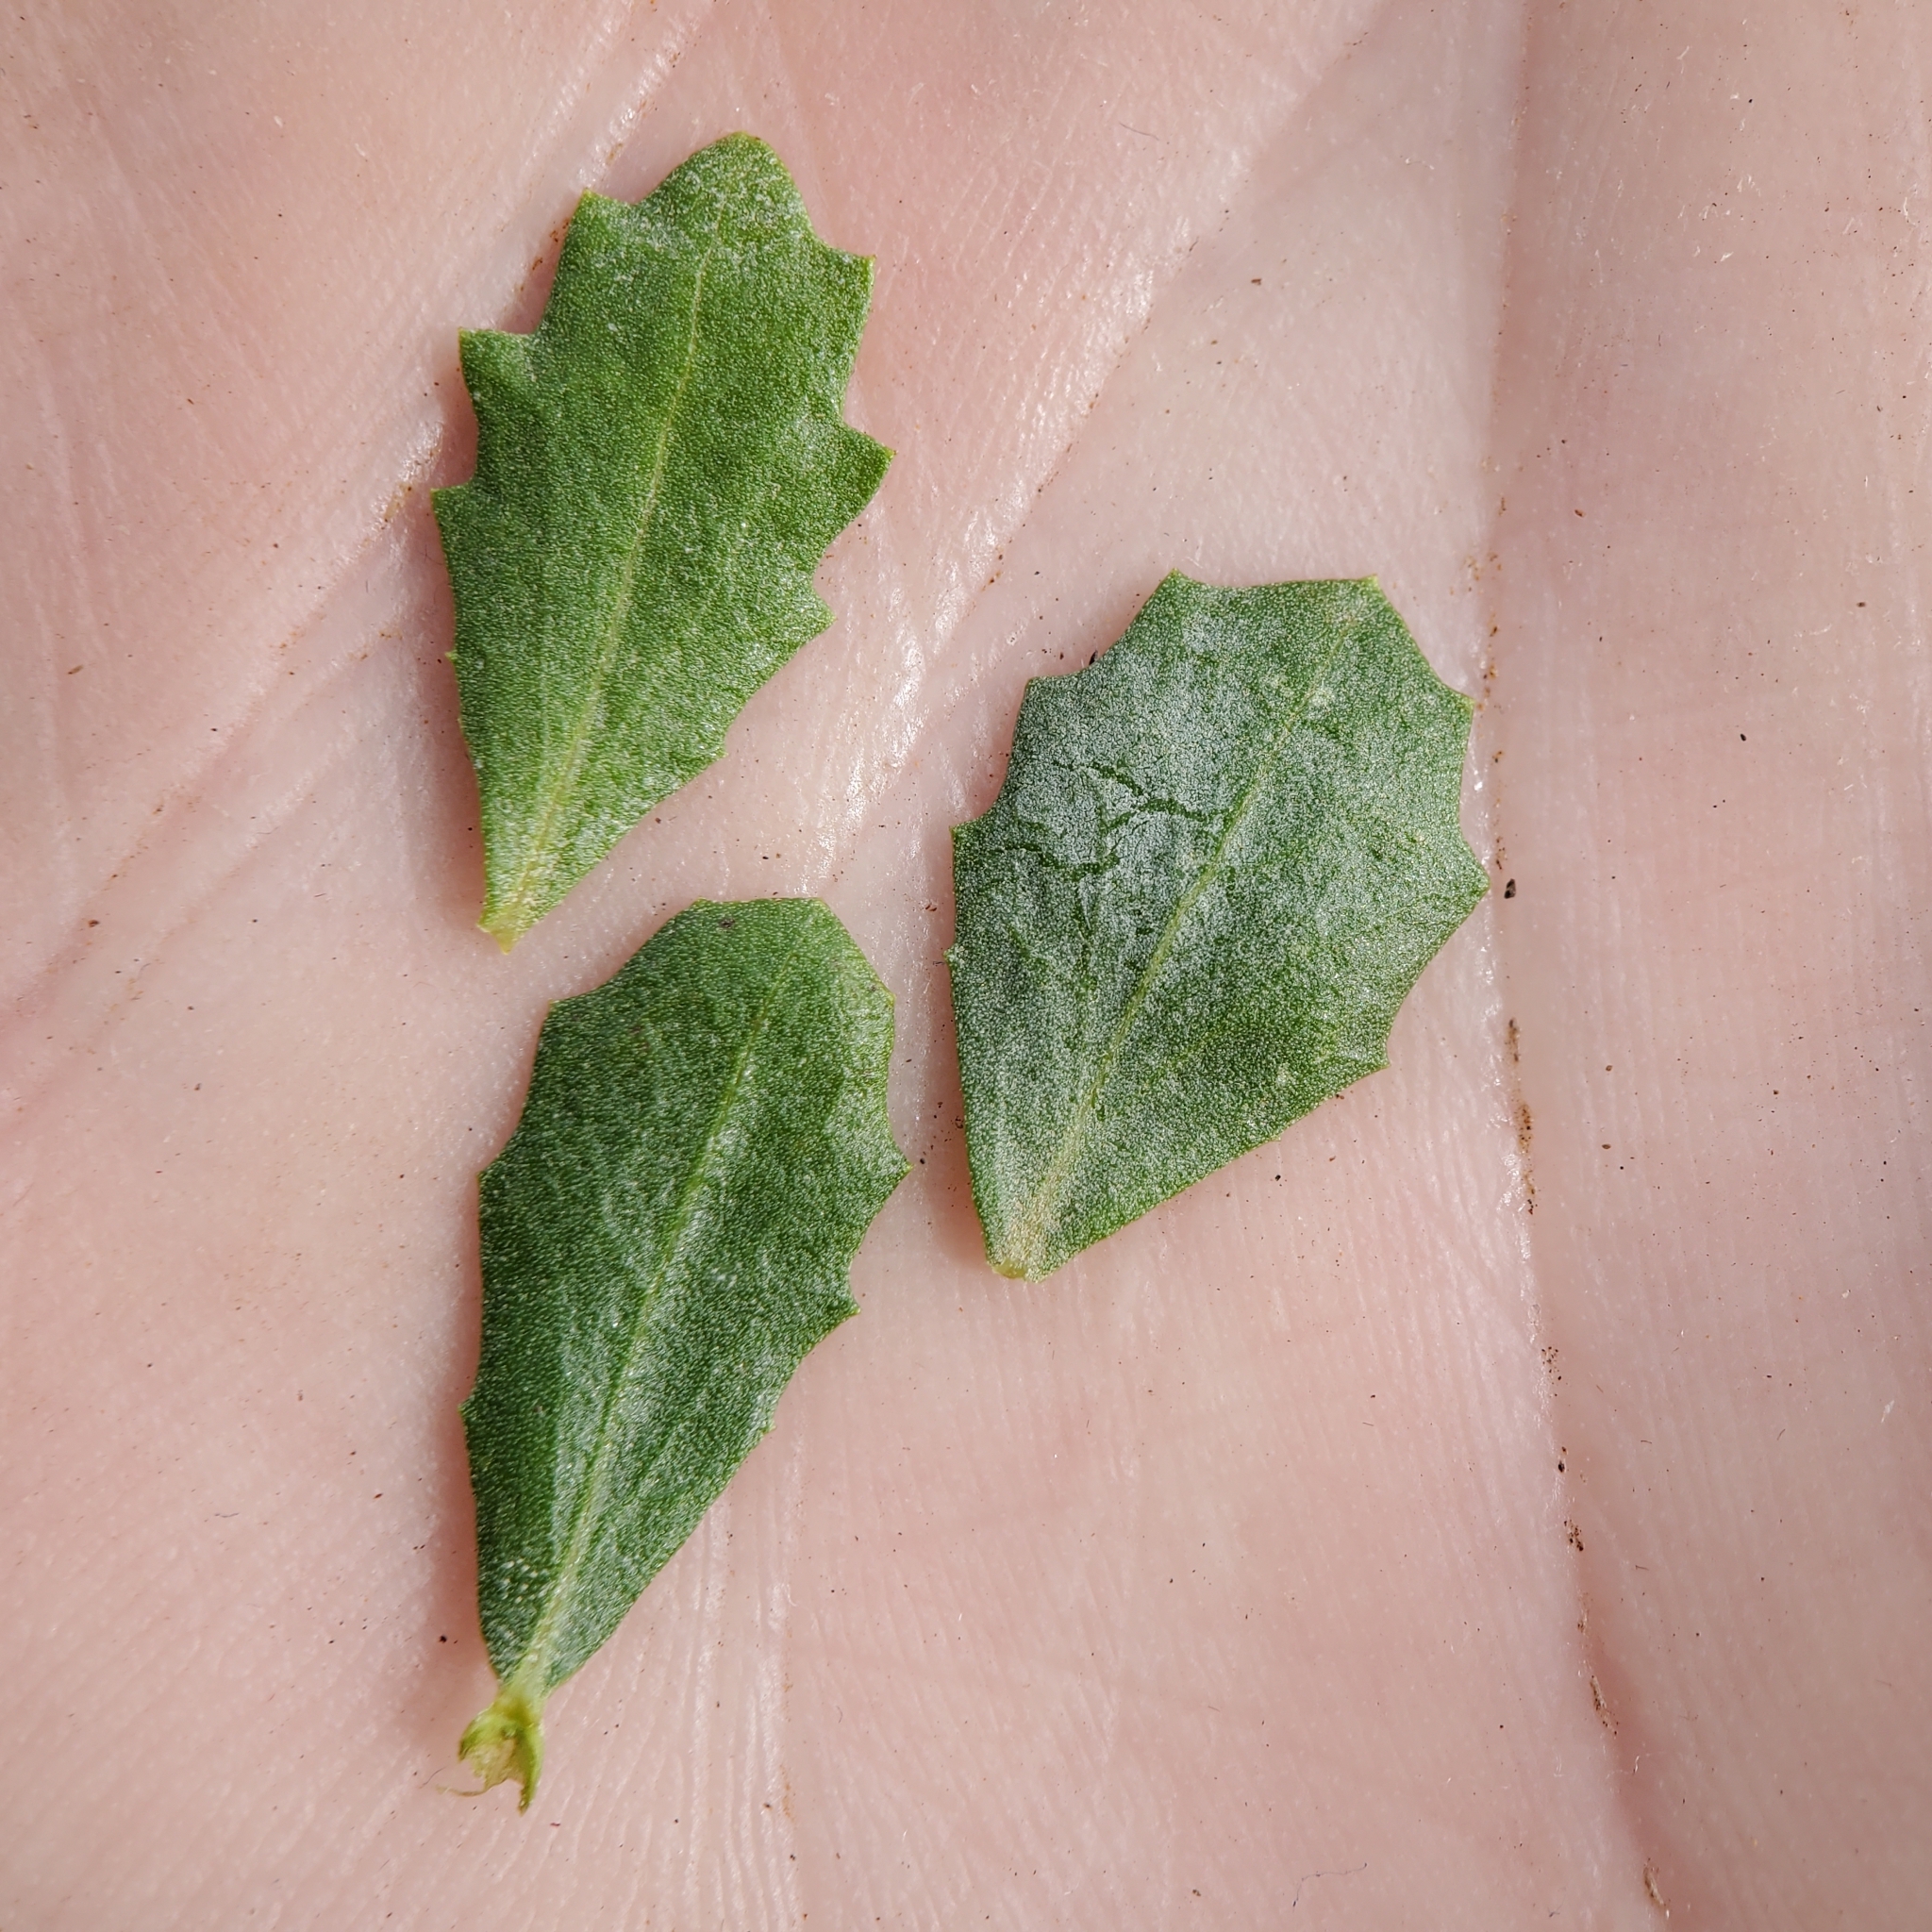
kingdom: Plantae
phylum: Tracheophyta
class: Magnoliopsida
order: Asterales
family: Asteraceae
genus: Baccharis
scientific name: Baccharis pilularis
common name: Coyotebrush
